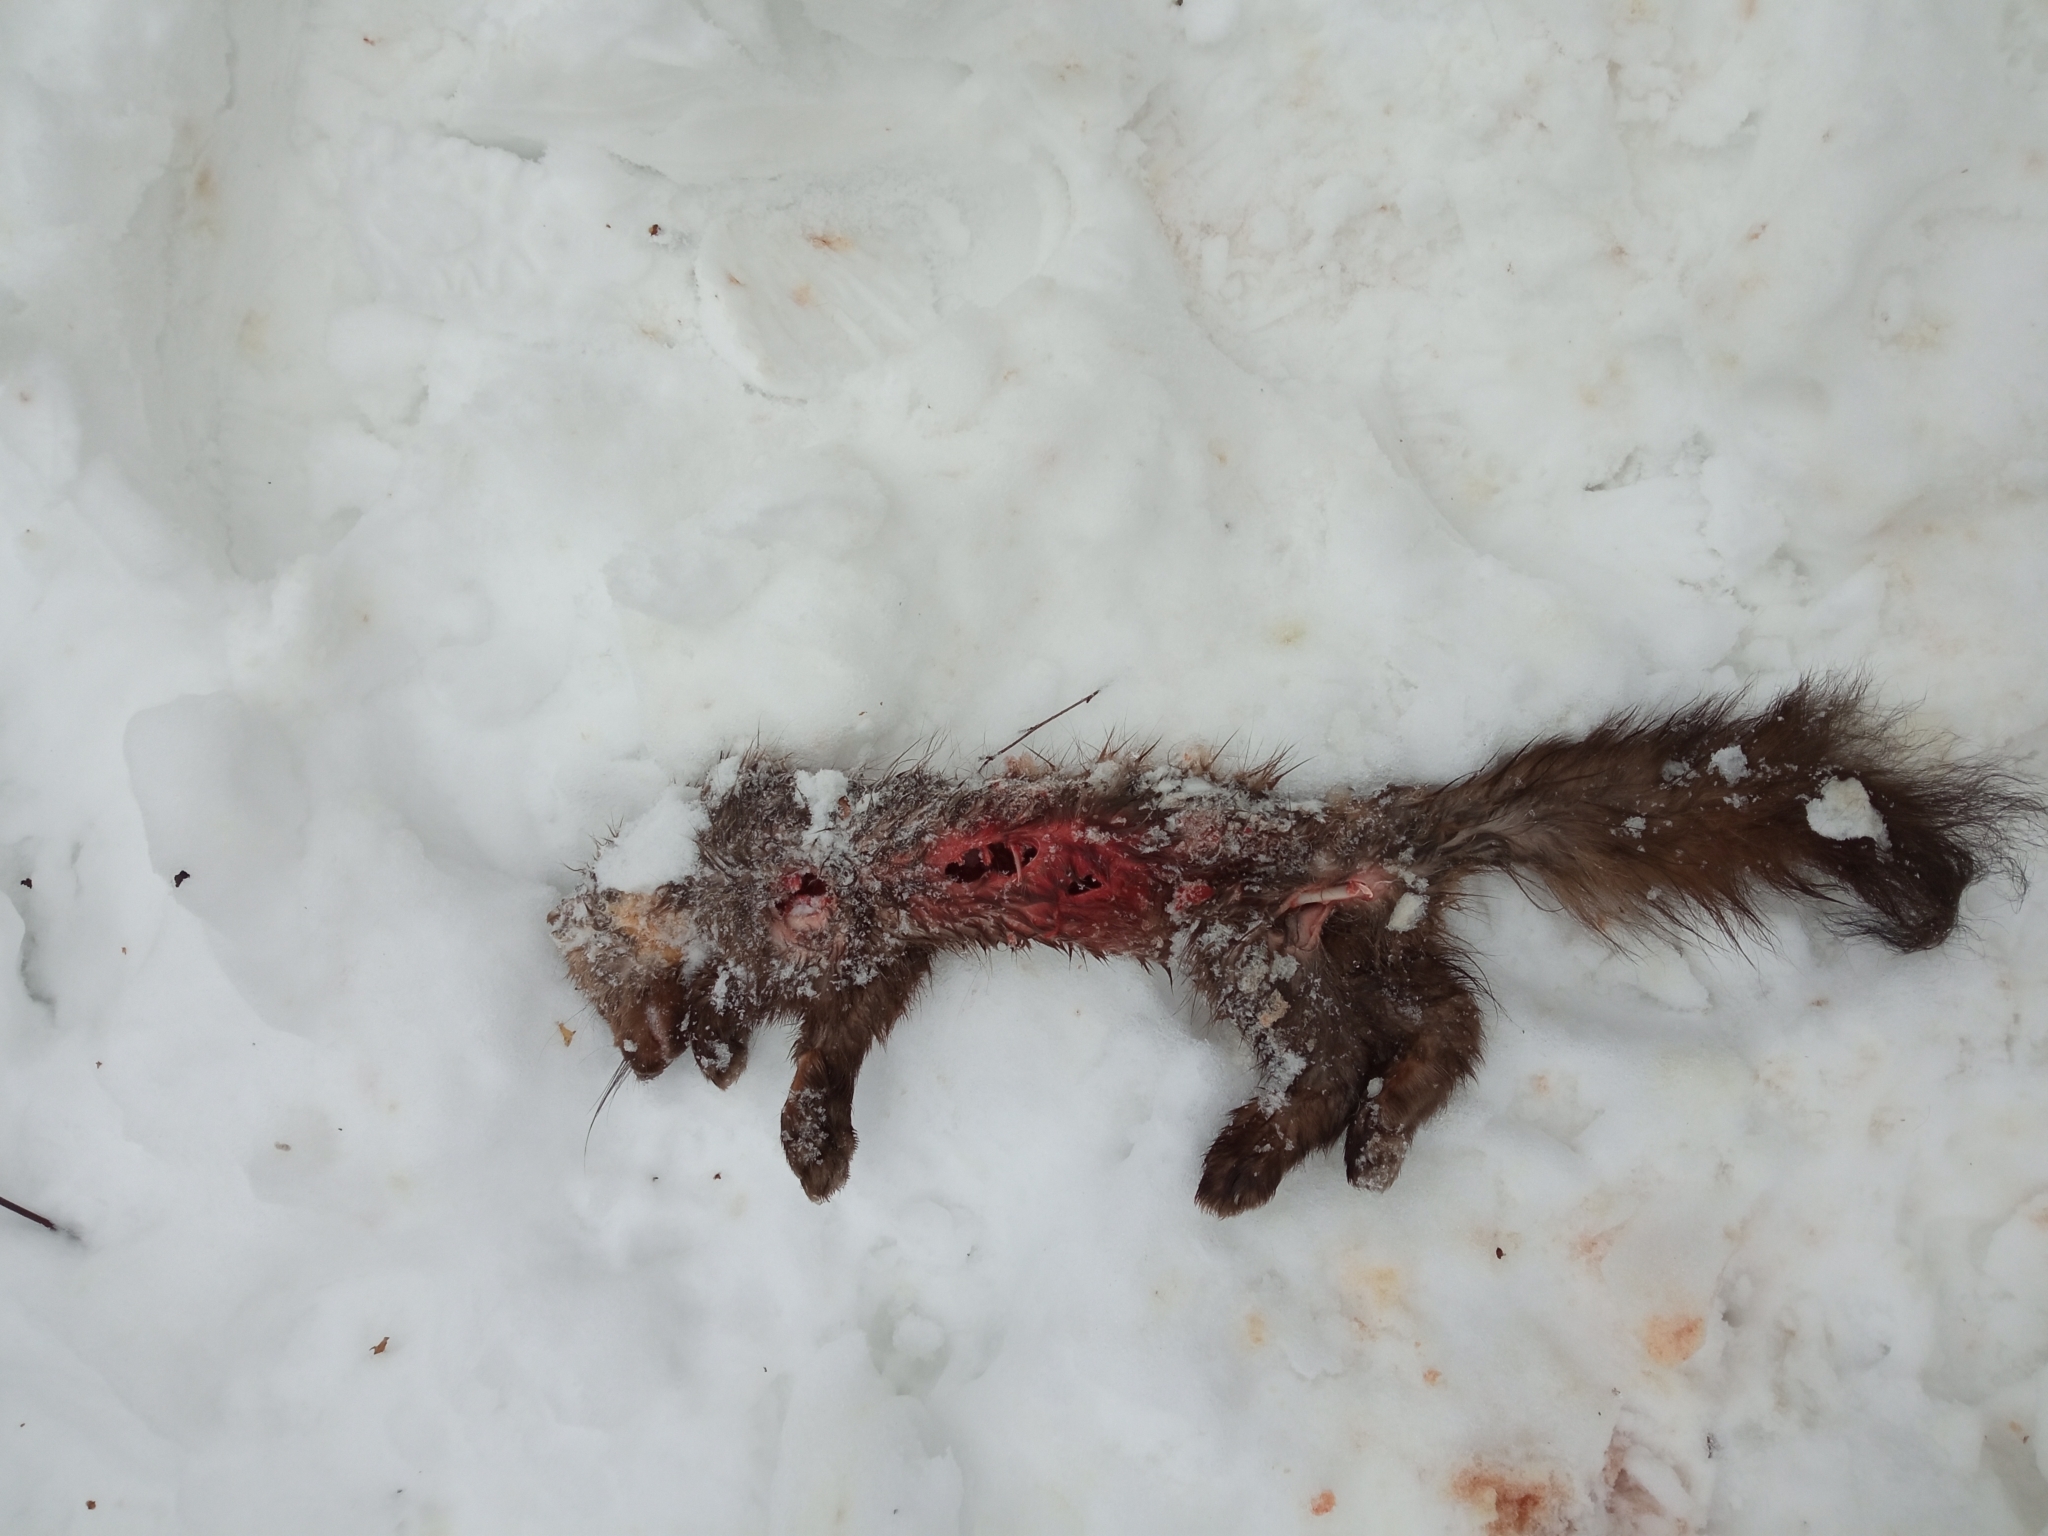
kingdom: Animalia
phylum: Chordata
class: Mammalia
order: Carnivora
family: Mustelidae
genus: Martes
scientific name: Martes martes
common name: European pine marten
